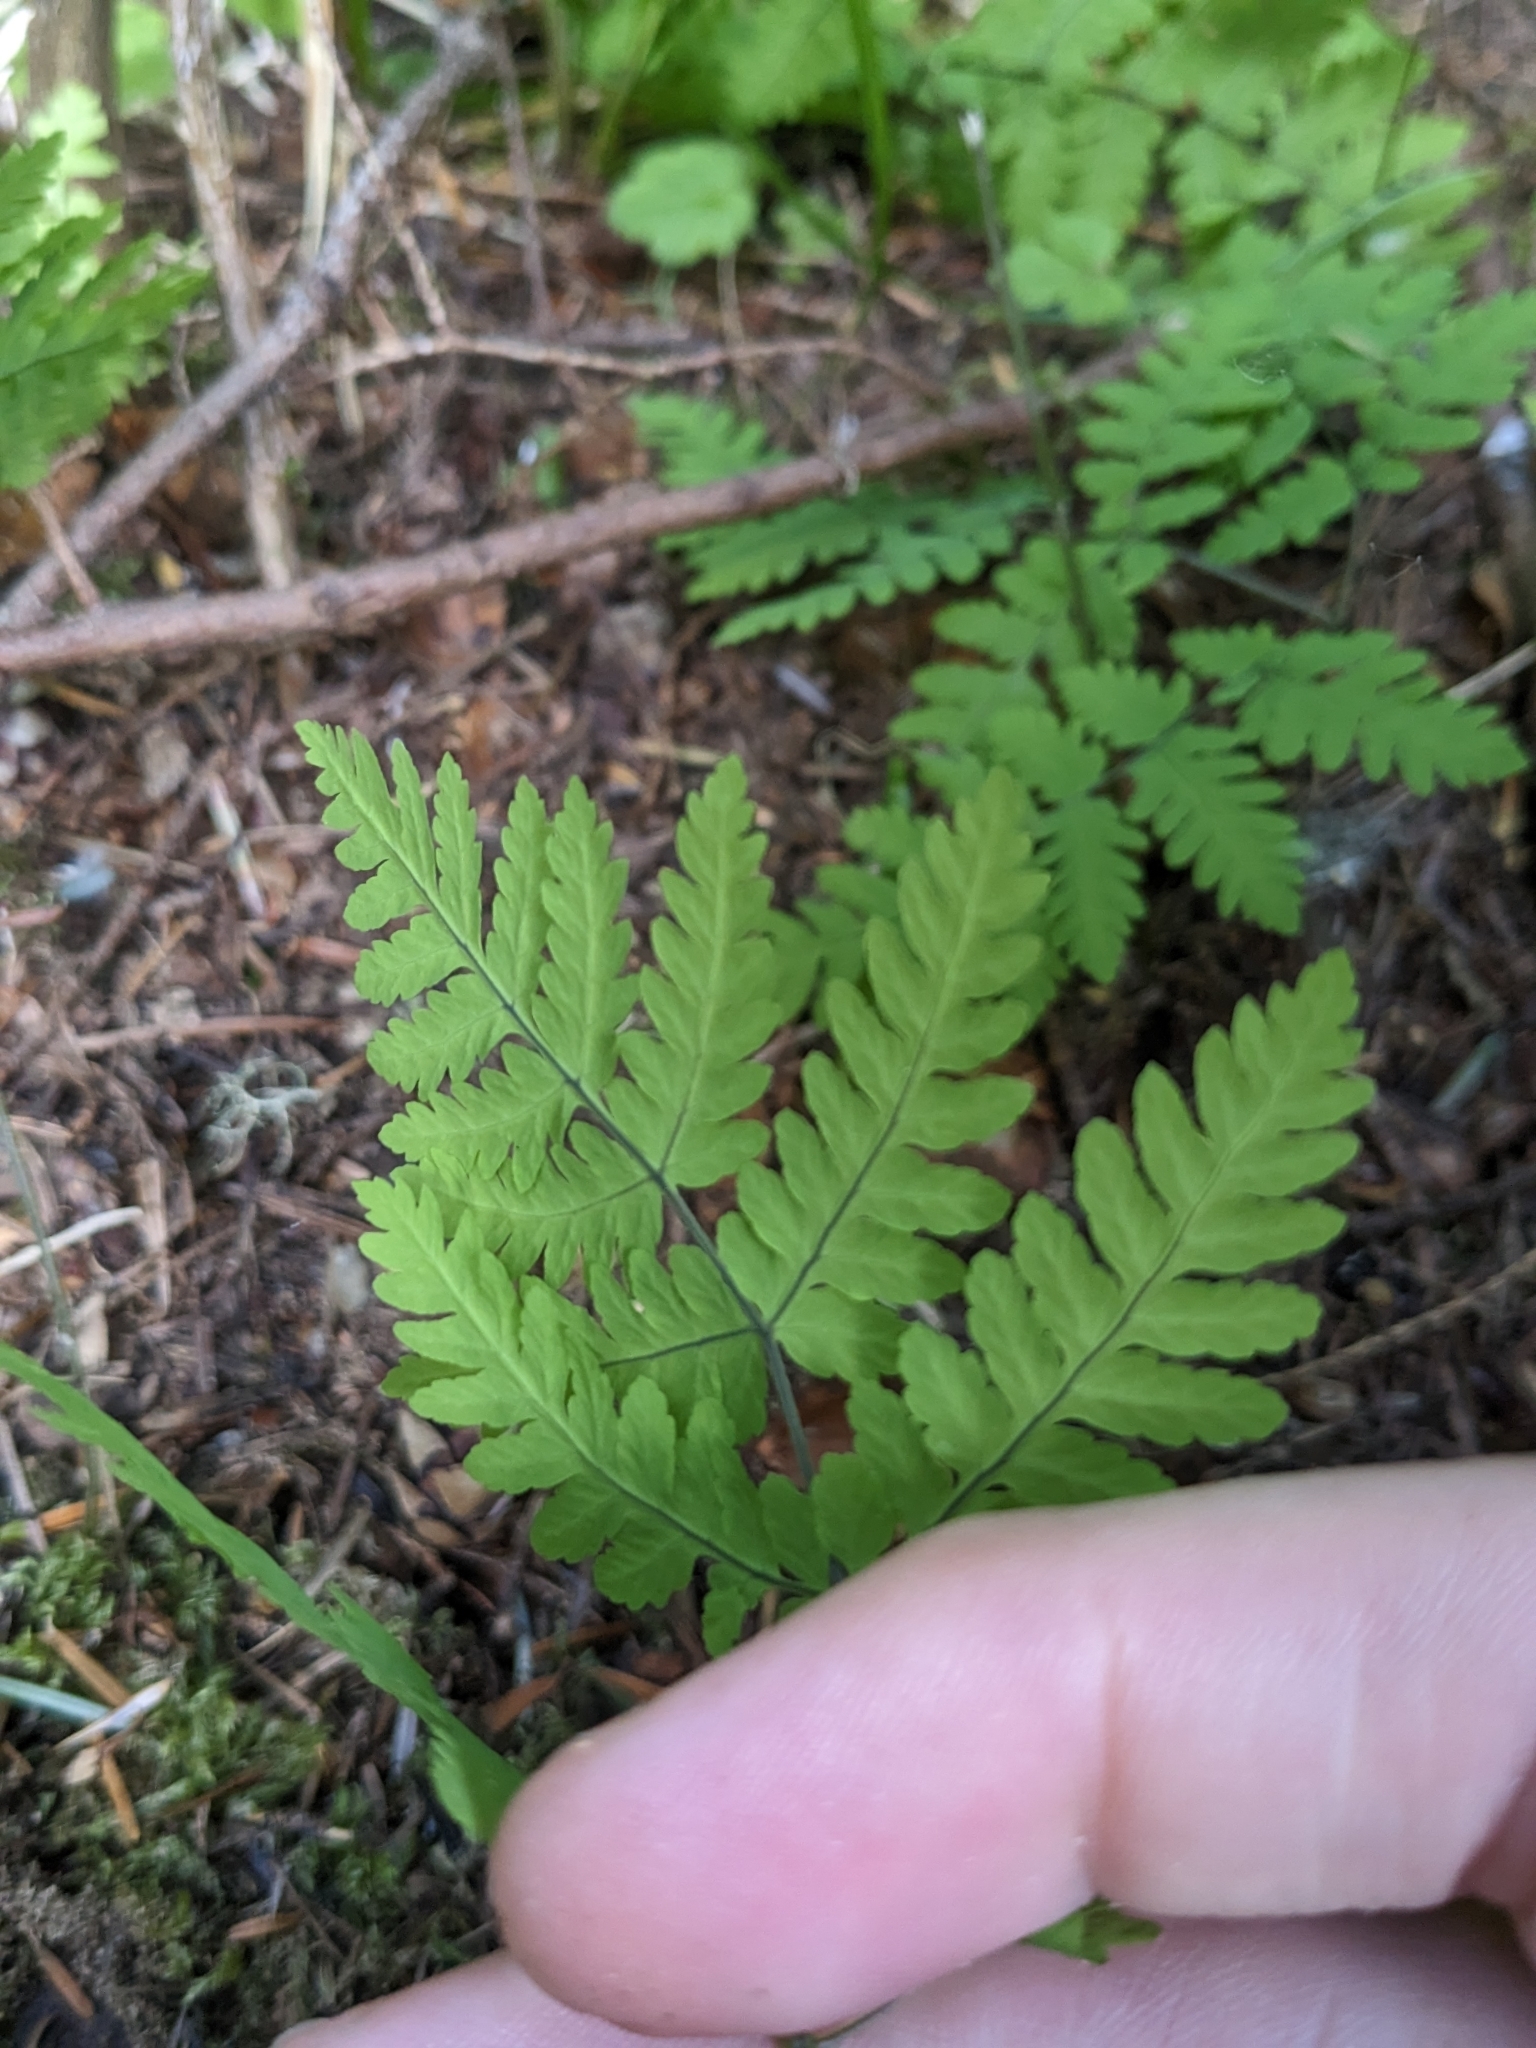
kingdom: Plantae
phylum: Tracheophyta
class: Polypodiopsida
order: Polypodiales
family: Cystopteridaceae
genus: Gymnocarpium
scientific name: Gymnocarpium disjunctum
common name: Western oak fern
